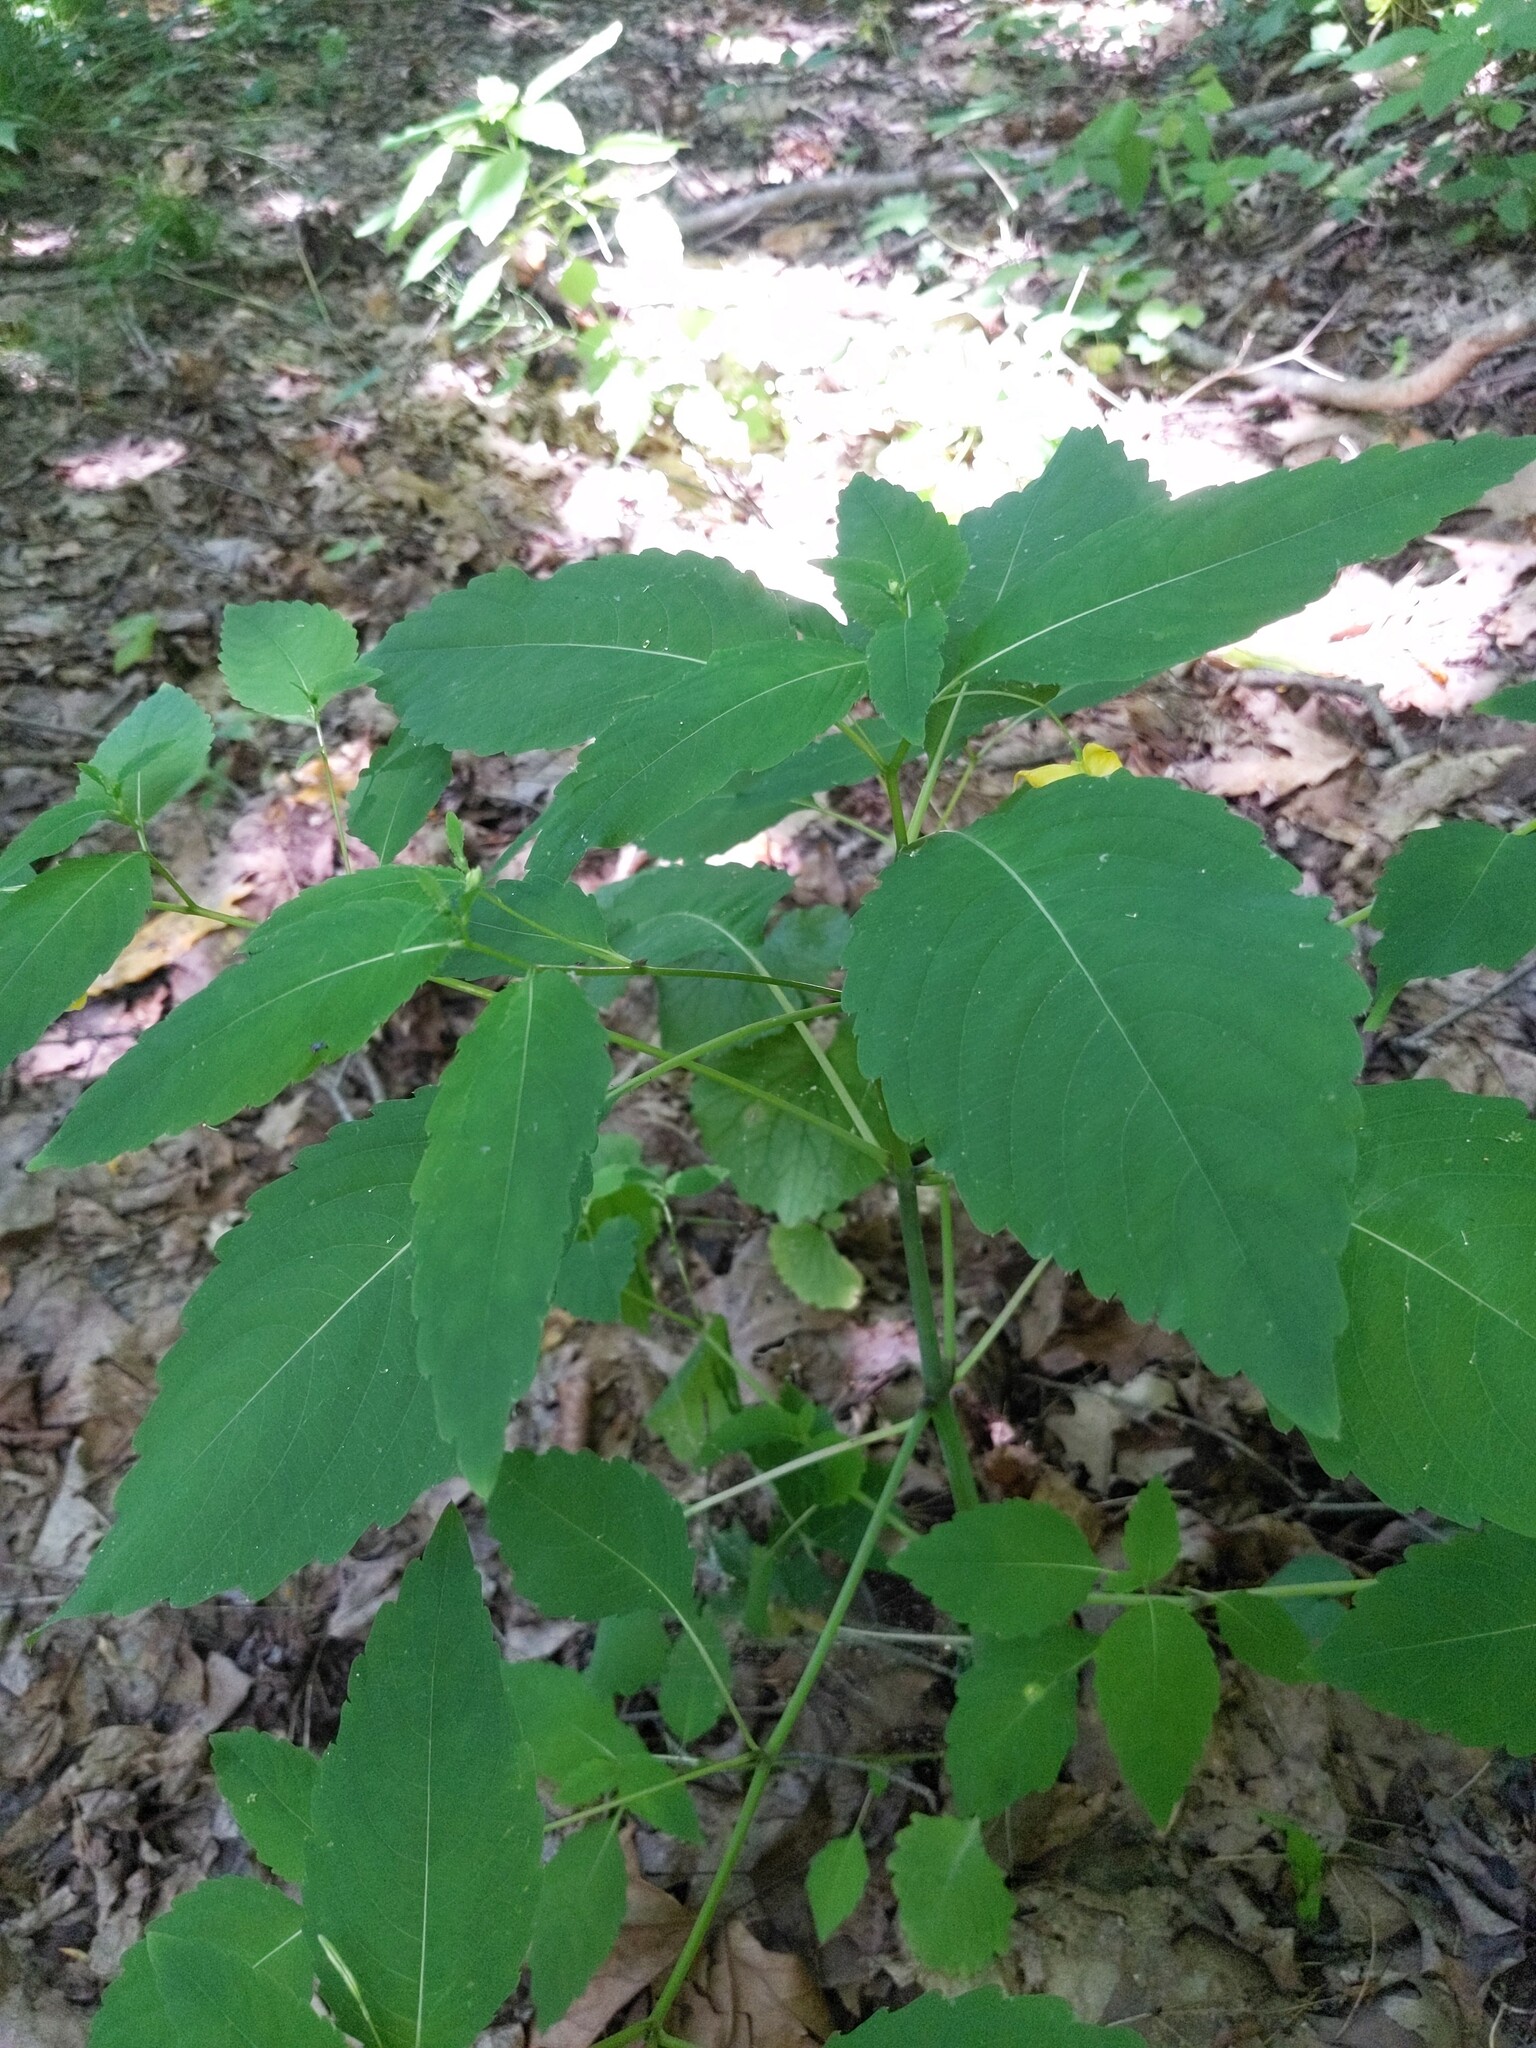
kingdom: Plantae
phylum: Tracheophyta
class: Magnoliopsida
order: Ericales
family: Balsaminaceae
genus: Impatiens
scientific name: Impatiens pallida
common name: Pale snapweed
